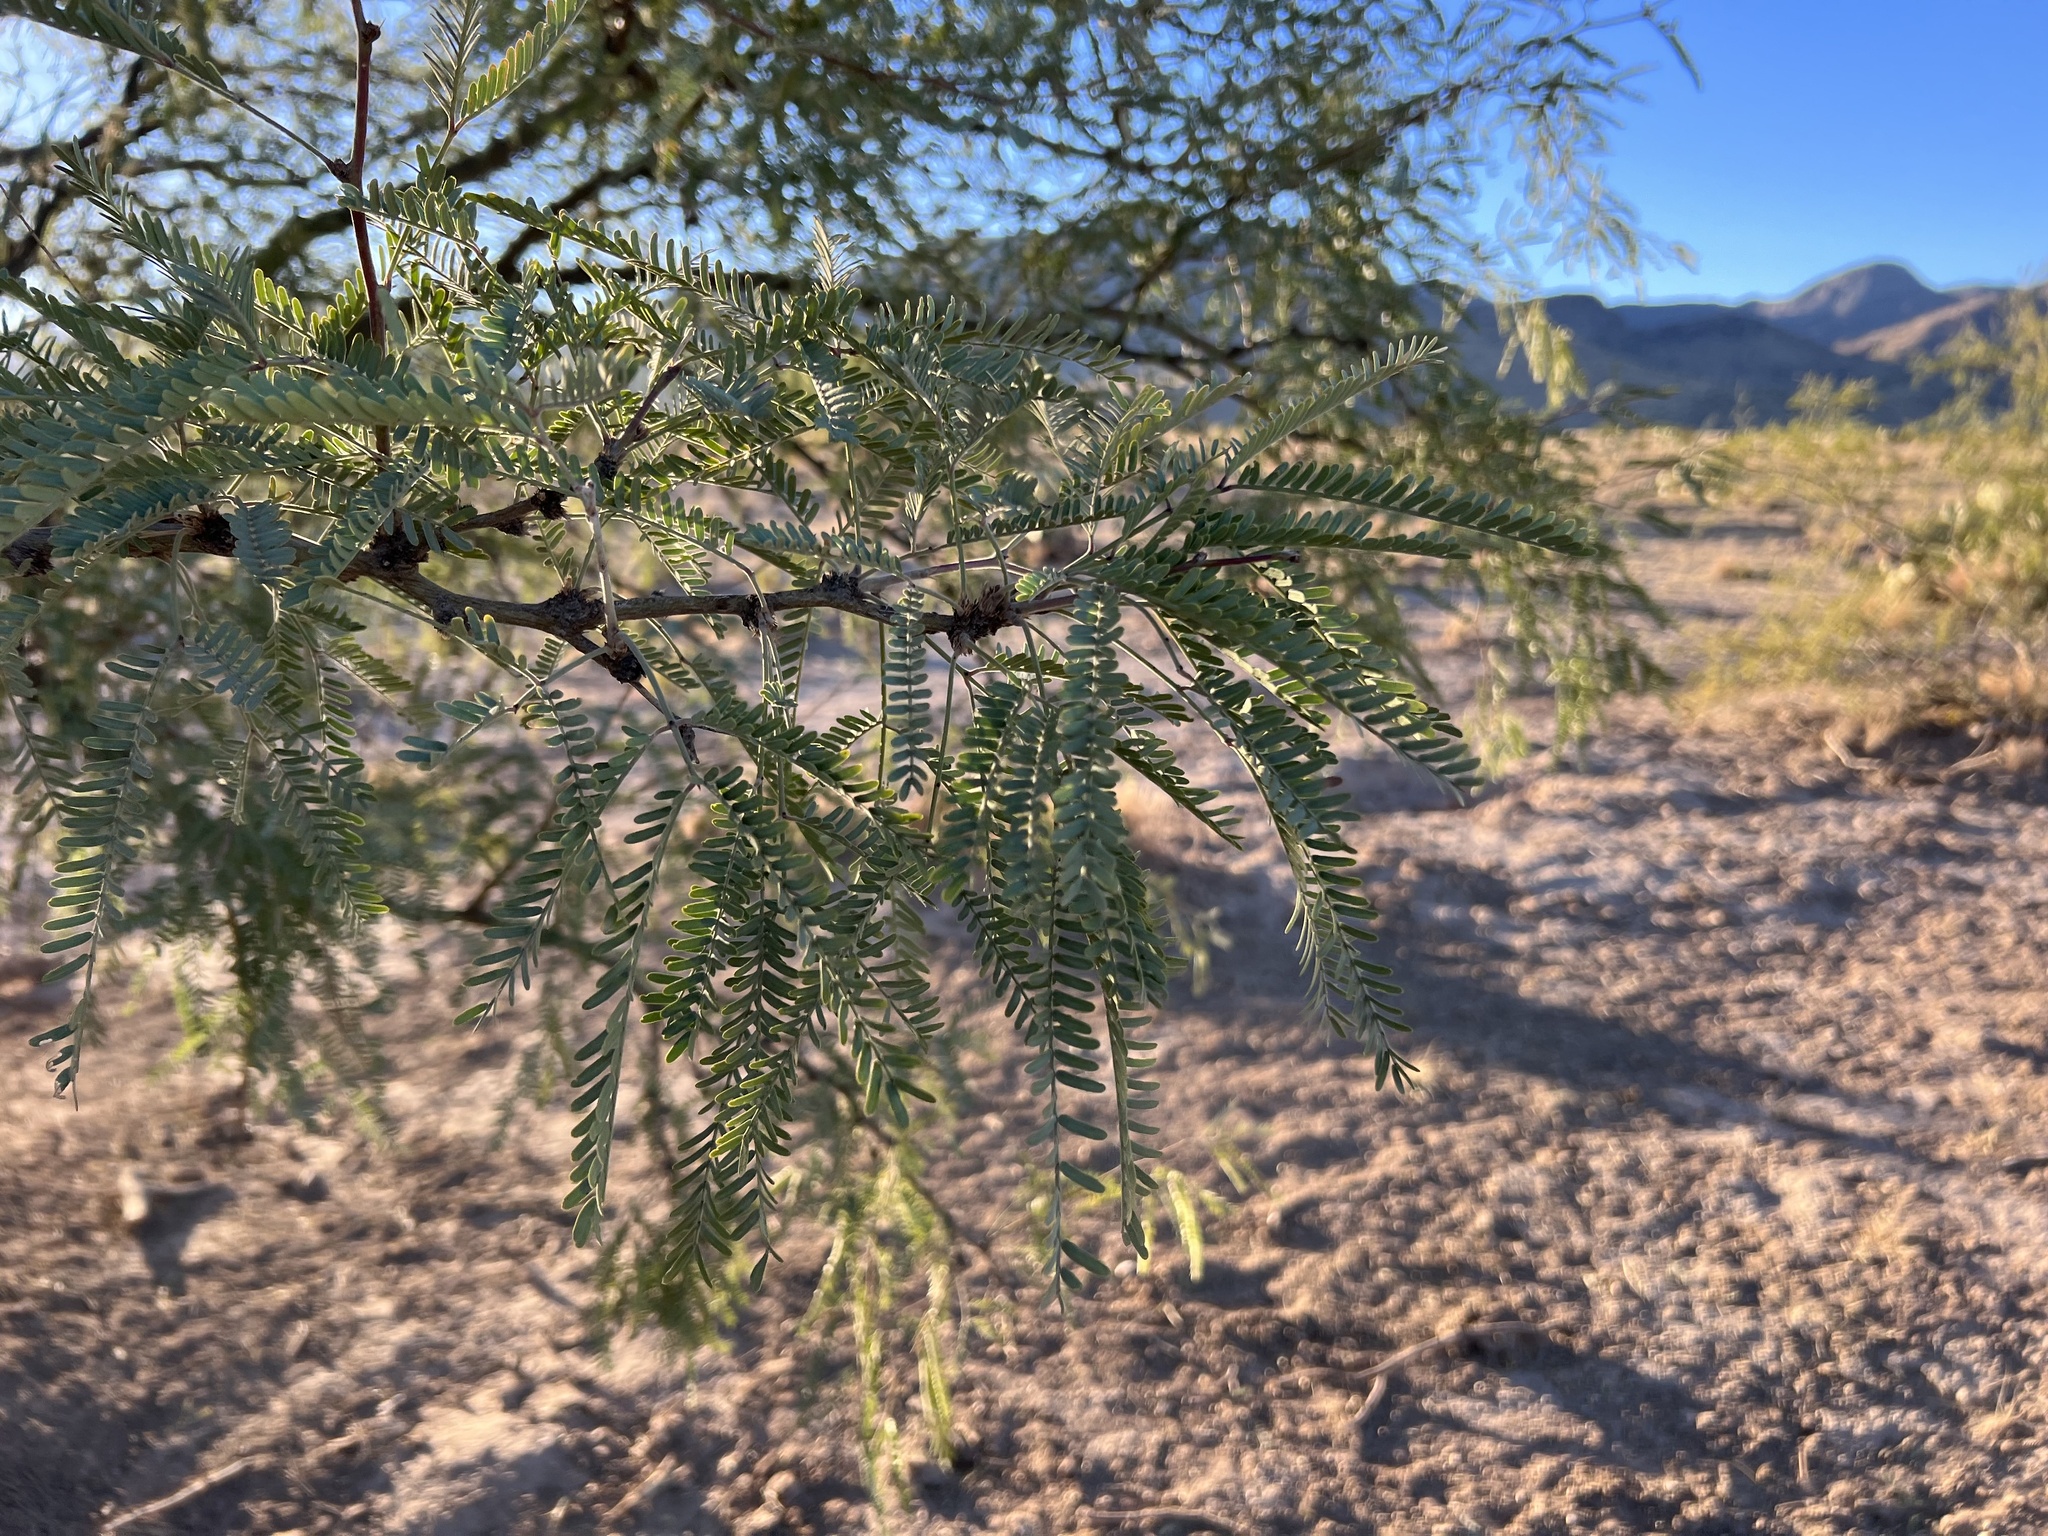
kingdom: Plantae
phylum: Tracheophyta
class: Magnoliopsida
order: Fabales
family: Fabaceae
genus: Prosopis
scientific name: Prosopis velutina
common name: Velvet mesquite
